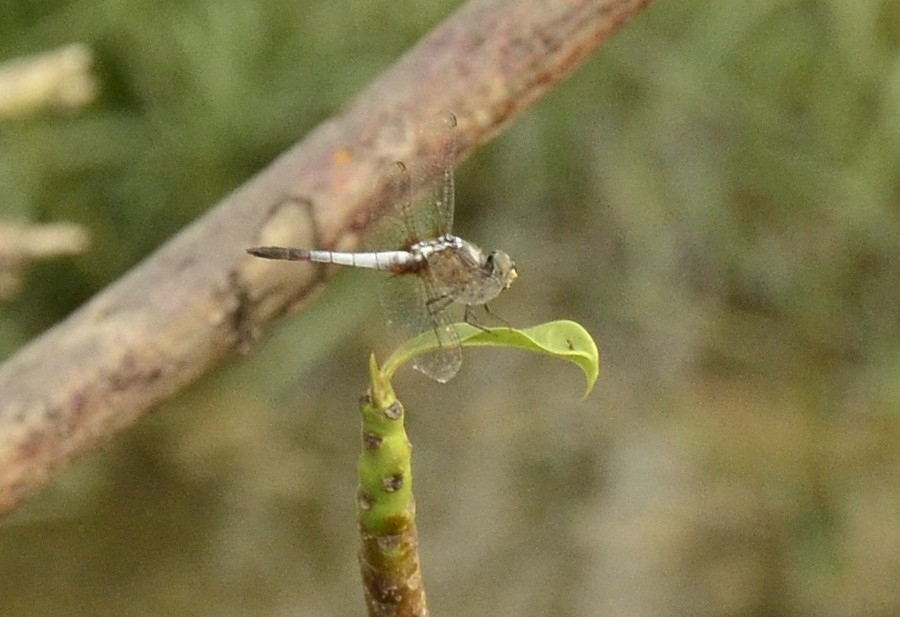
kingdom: Animalia
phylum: Arthropoda
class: Insecta
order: Odonata
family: Libellulidae
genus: Brachydiplax
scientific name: Brachydiplax chalybea
